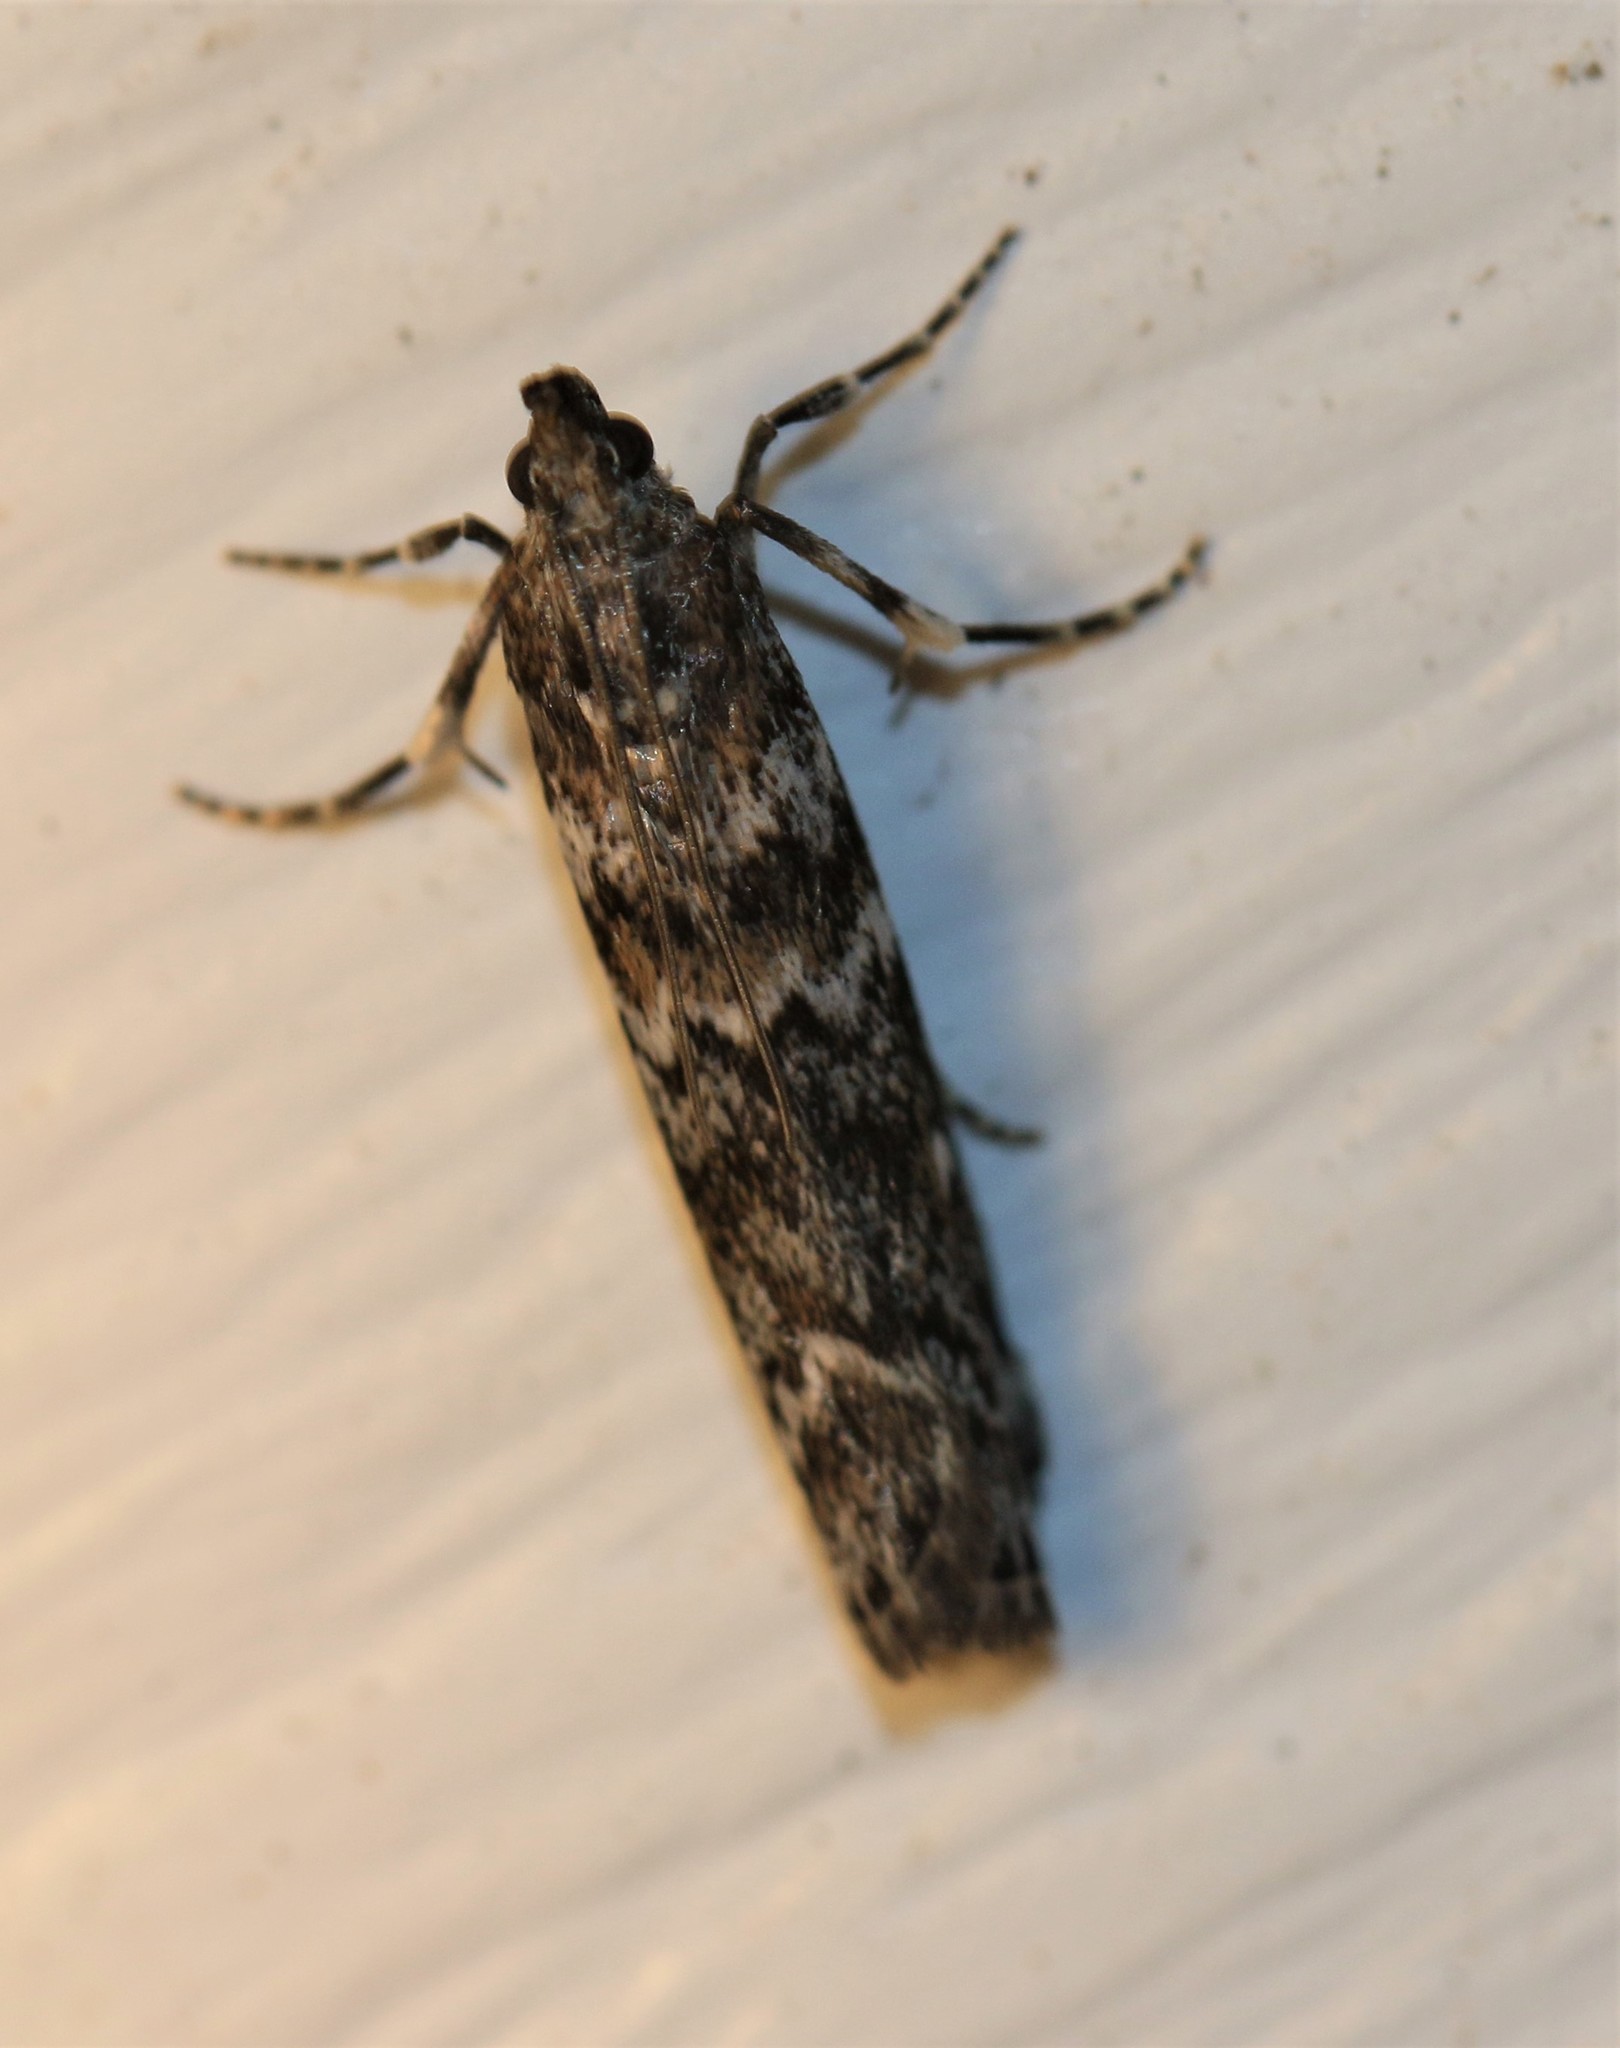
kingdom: Animalia
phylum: Arthropoda
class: Insecta
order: Lepidoptera
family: Pyralidae
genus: Dioryctria
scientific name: Dioryctria abietivorella
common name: Evergreen coneworm moth
